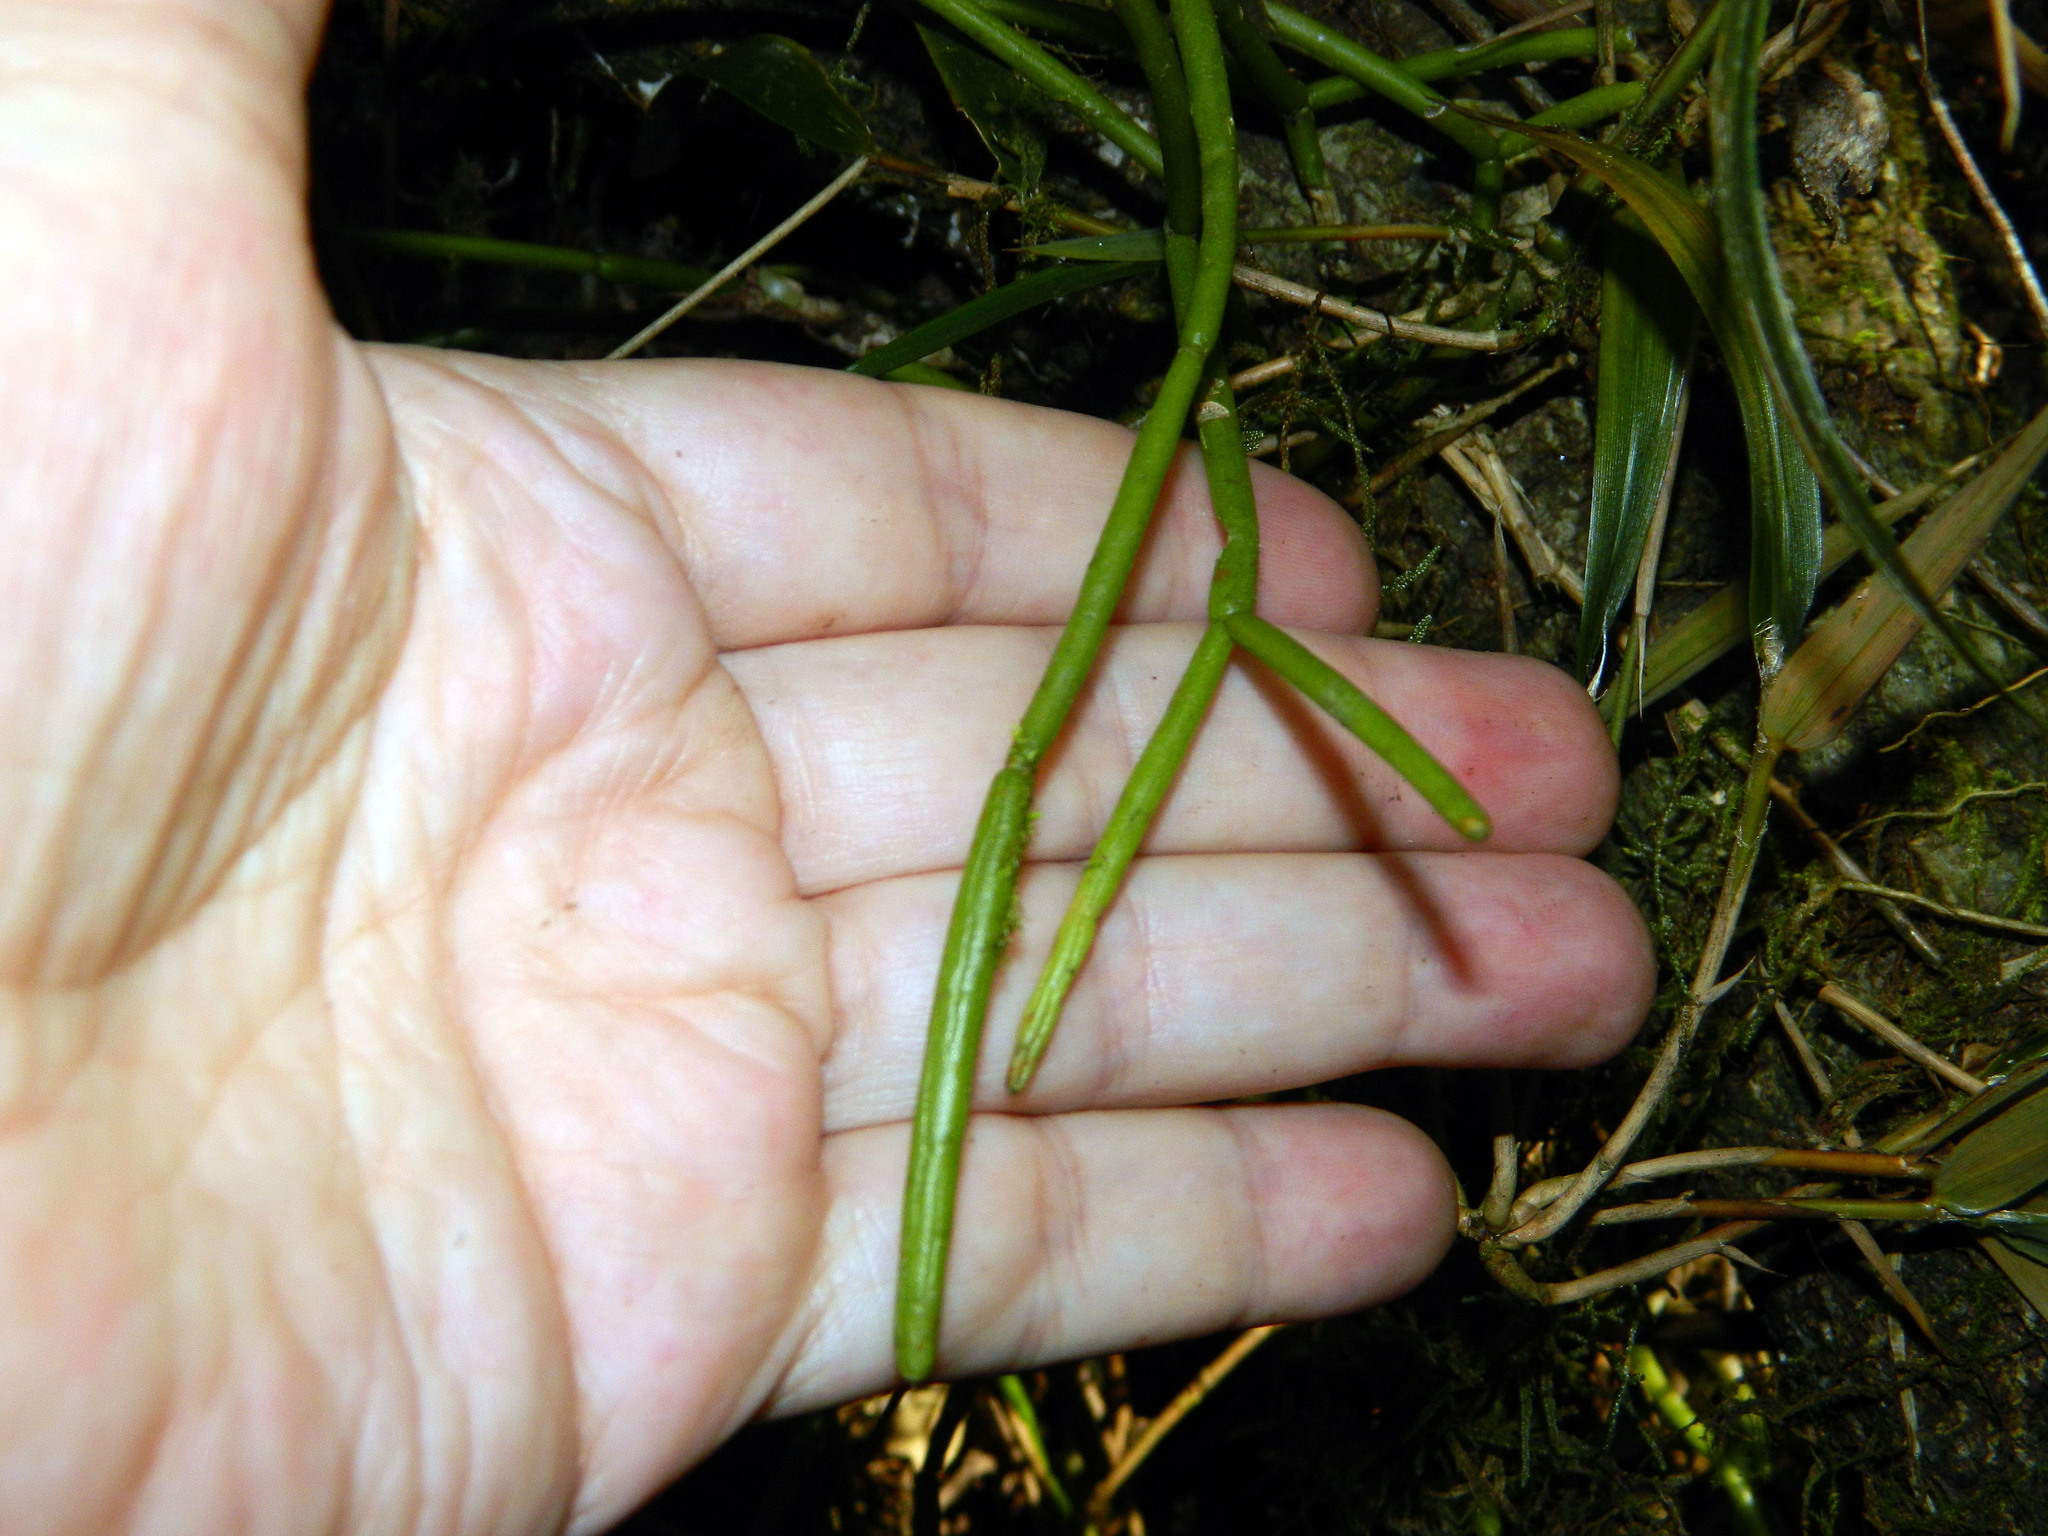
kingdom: Plantae
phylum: Tracheophyta
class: Magnoliopsida
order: Caryophyllales
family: Cactaceae
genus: Rhipsalis
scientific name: Rhipsalis baccifera
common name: Mistletoe cactus
